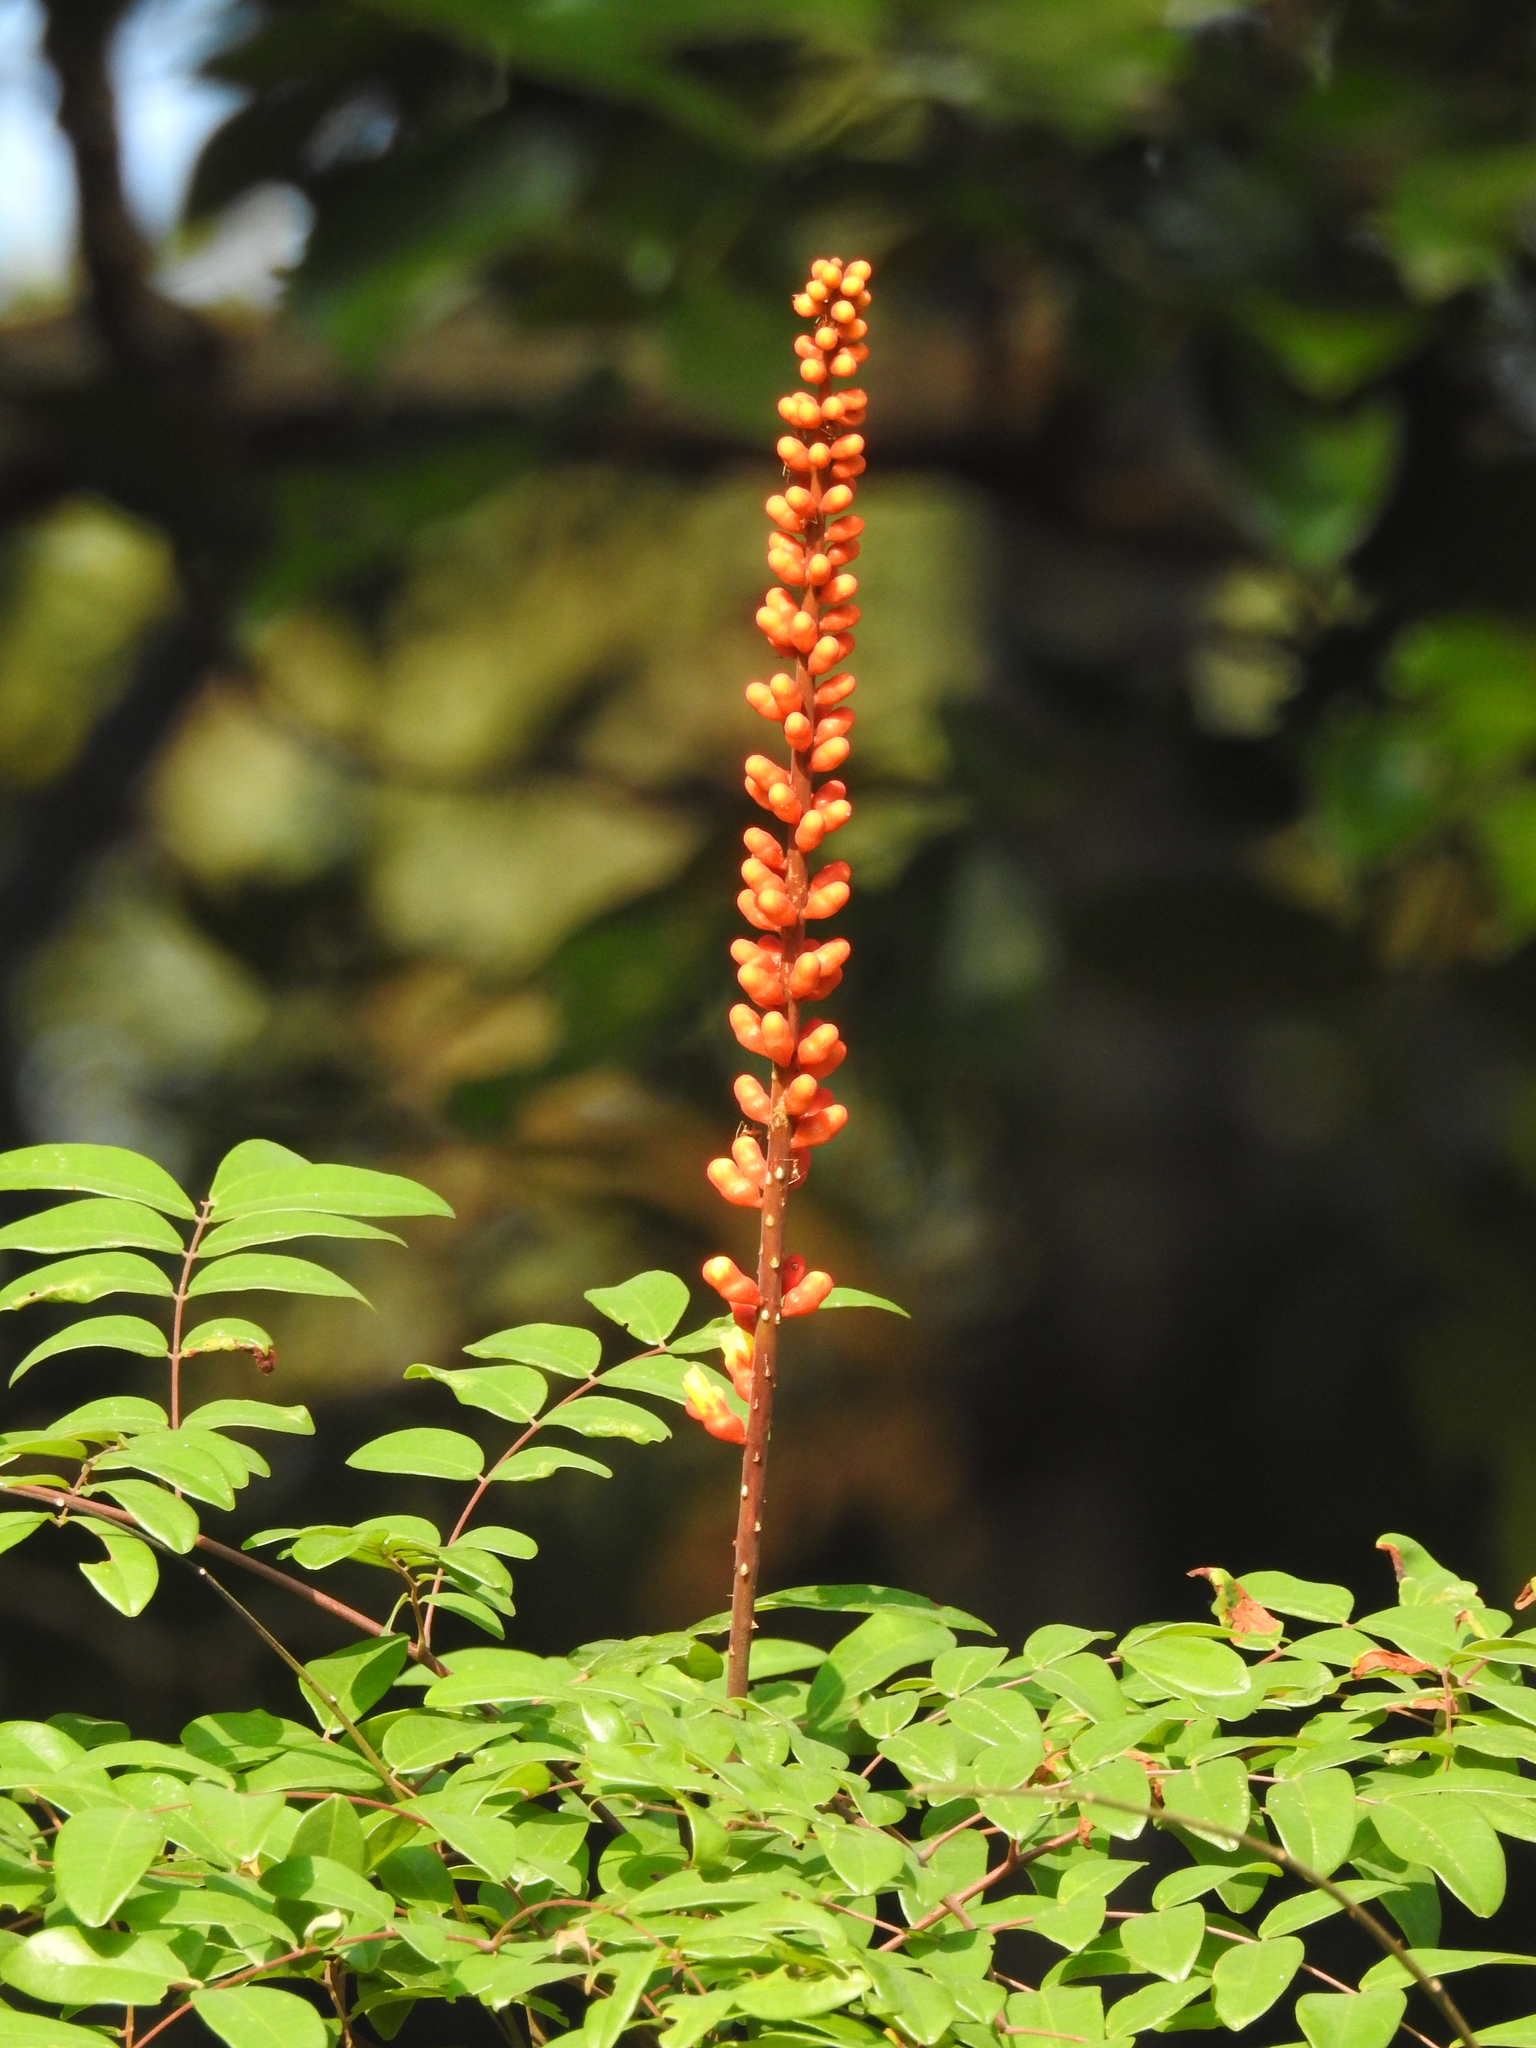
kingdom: Plantae
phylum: Tracheophyta
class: Magnoliopsida
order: Fabales
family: Fabaceae
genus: Moullava
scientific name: Moullava spicata
